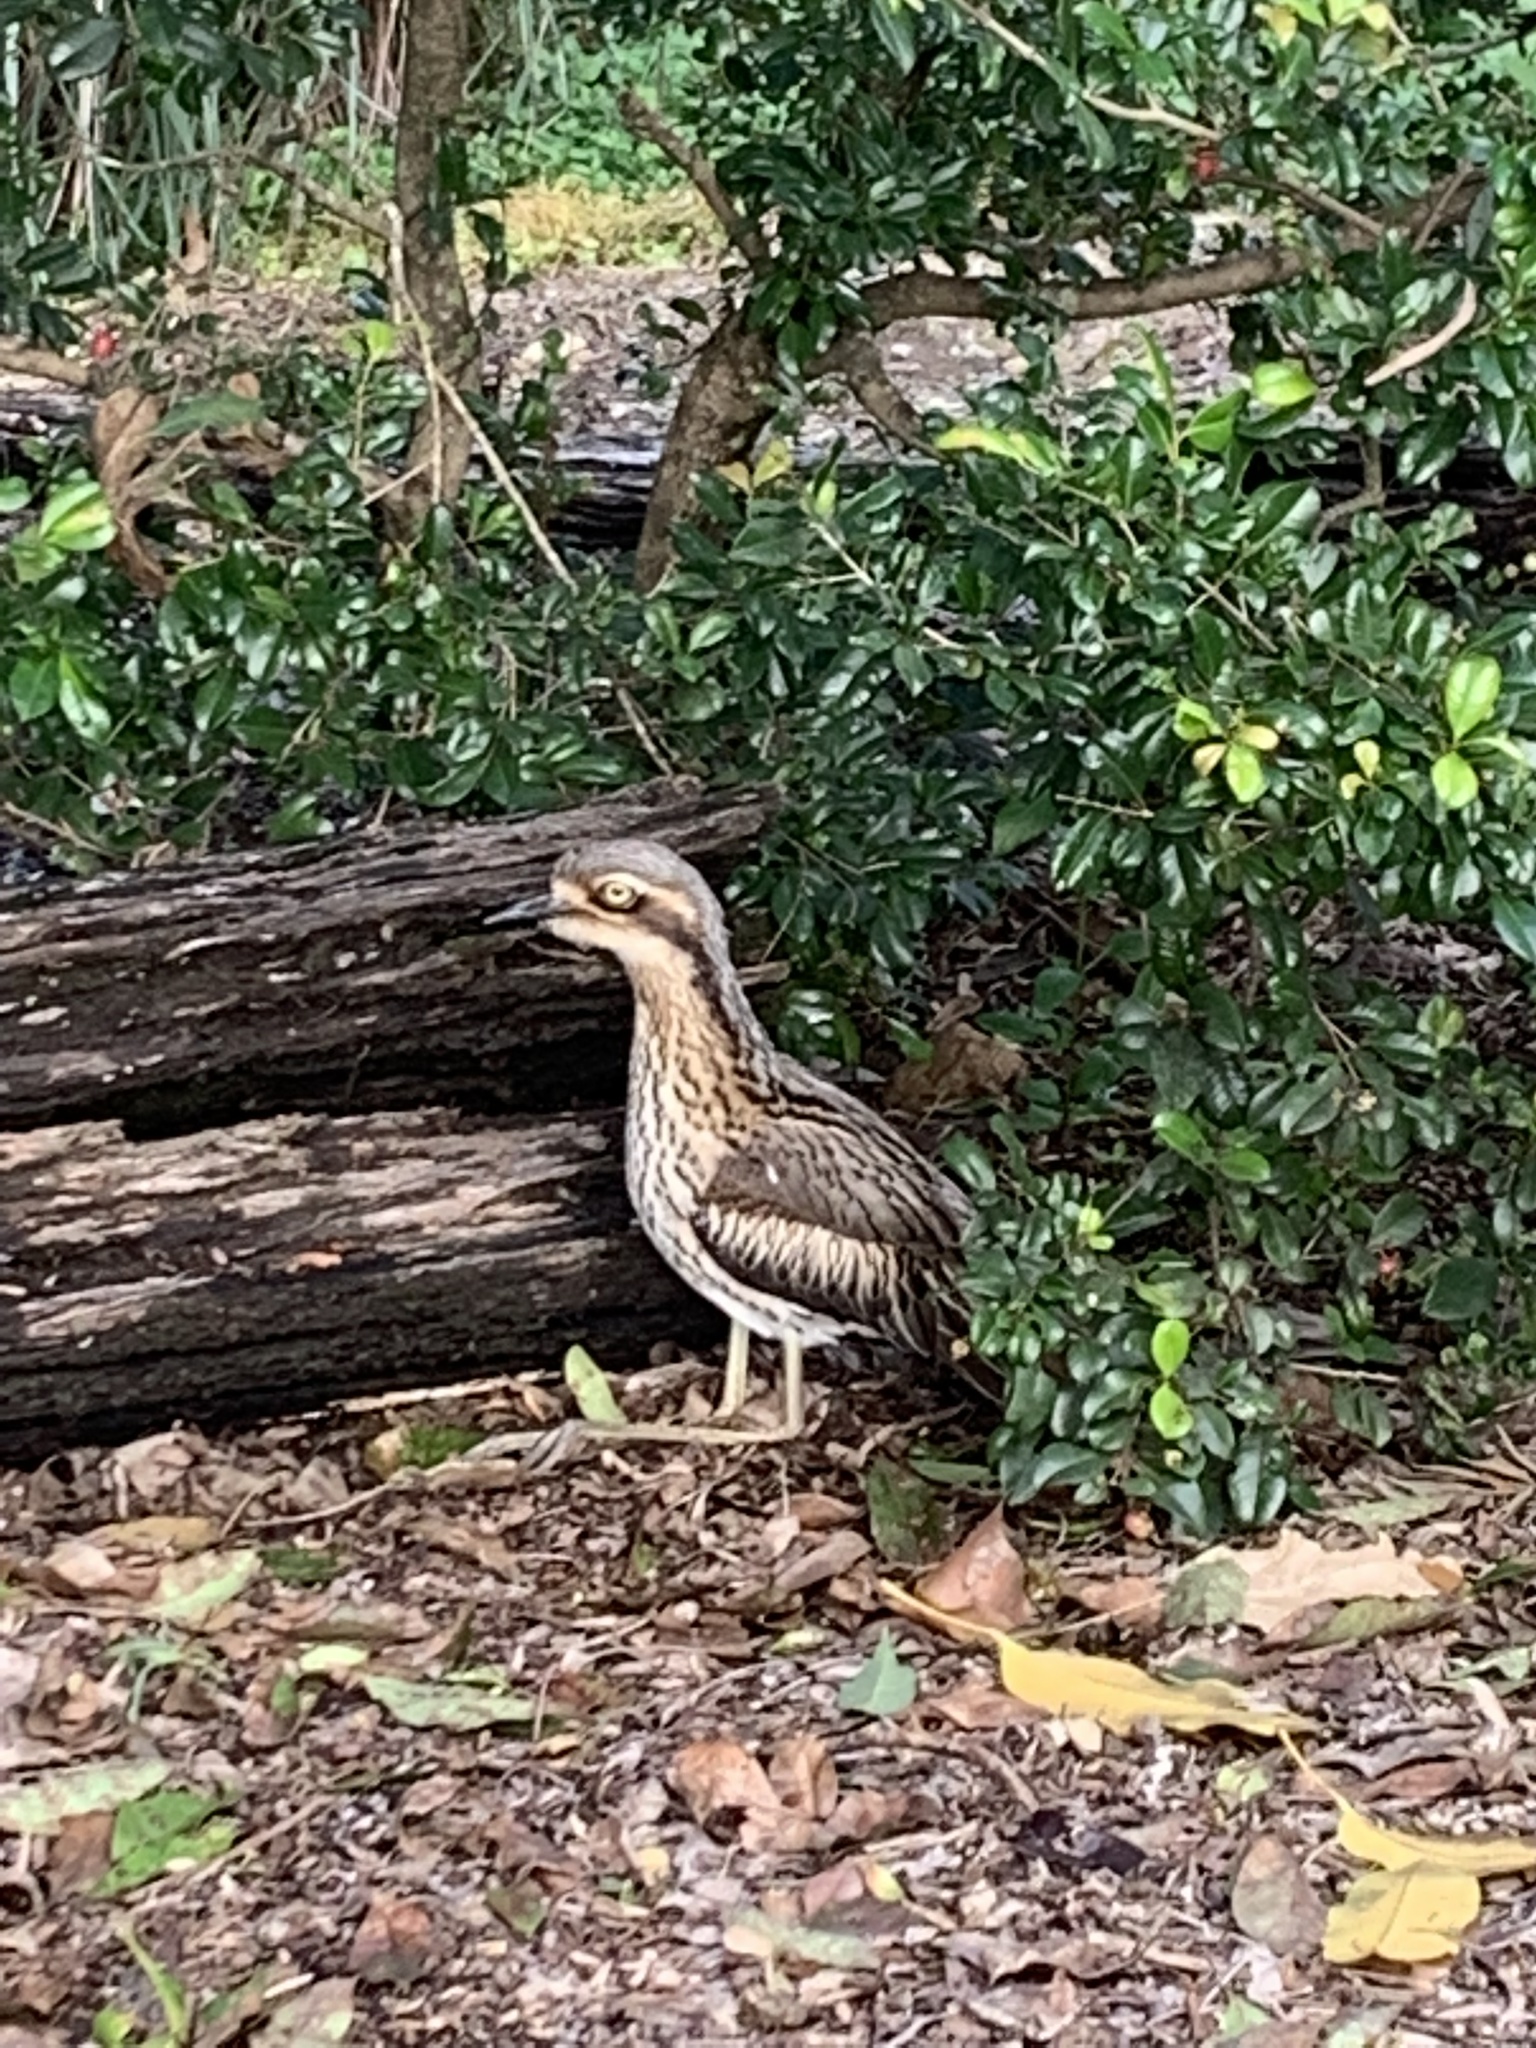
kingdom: Animalia
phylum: Chordata
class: Aves
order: Charadriiformes
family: Burhinidae
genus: Burhinus
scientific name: Burhinus grallarius
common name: Bush stone-curlew
